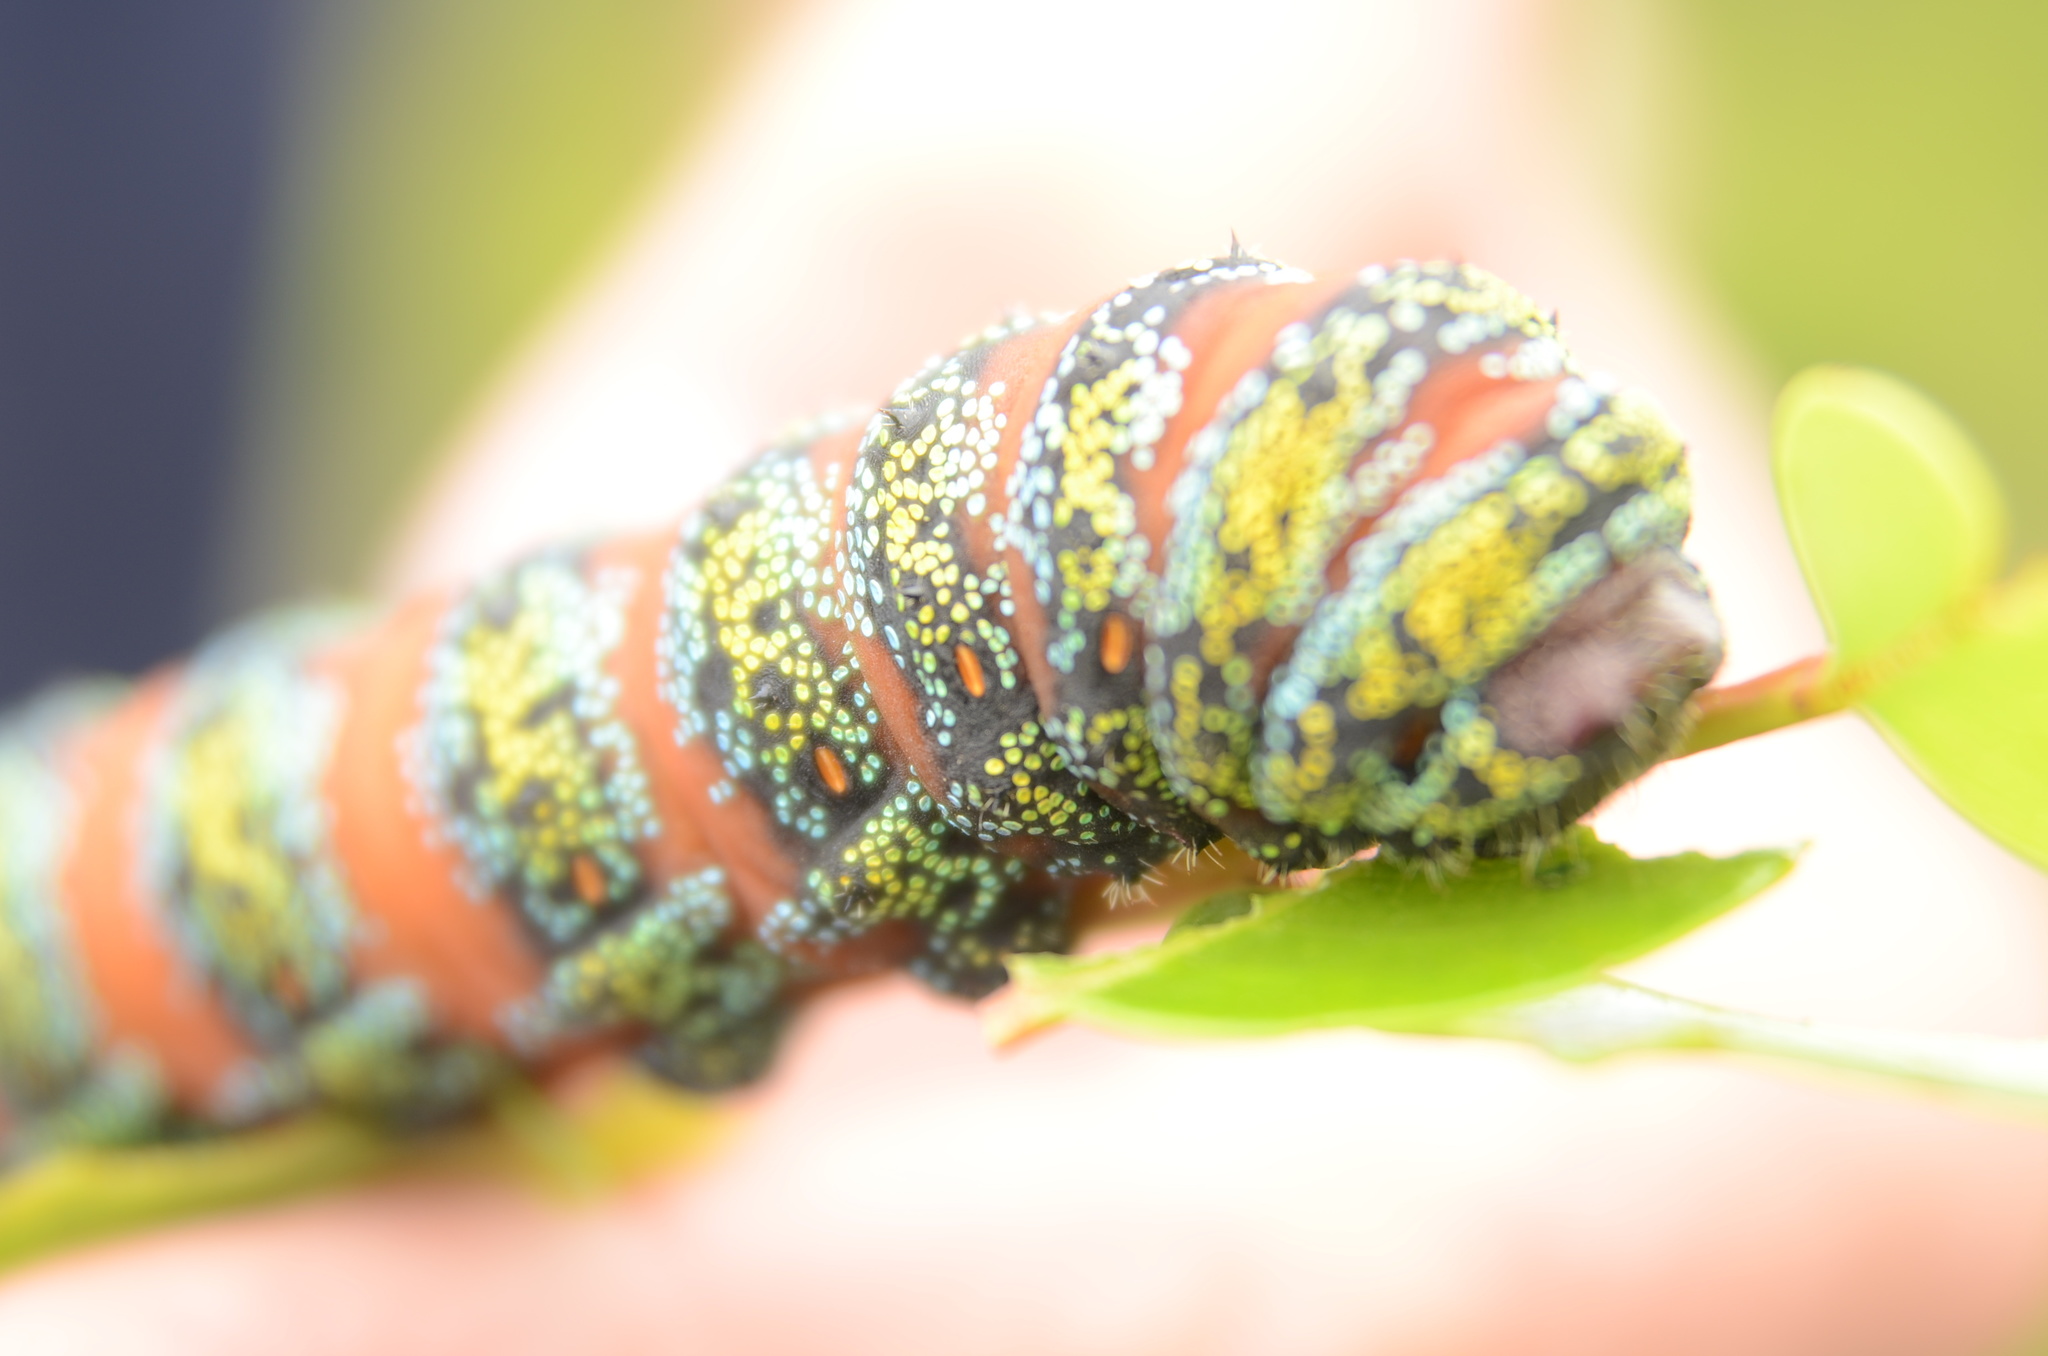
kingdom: Animalia
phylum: Arthropoda
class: Insecta
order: Lepidoptera
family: Saturniidae
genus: Nudaurelia
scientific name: Nudaurelia cytherea
